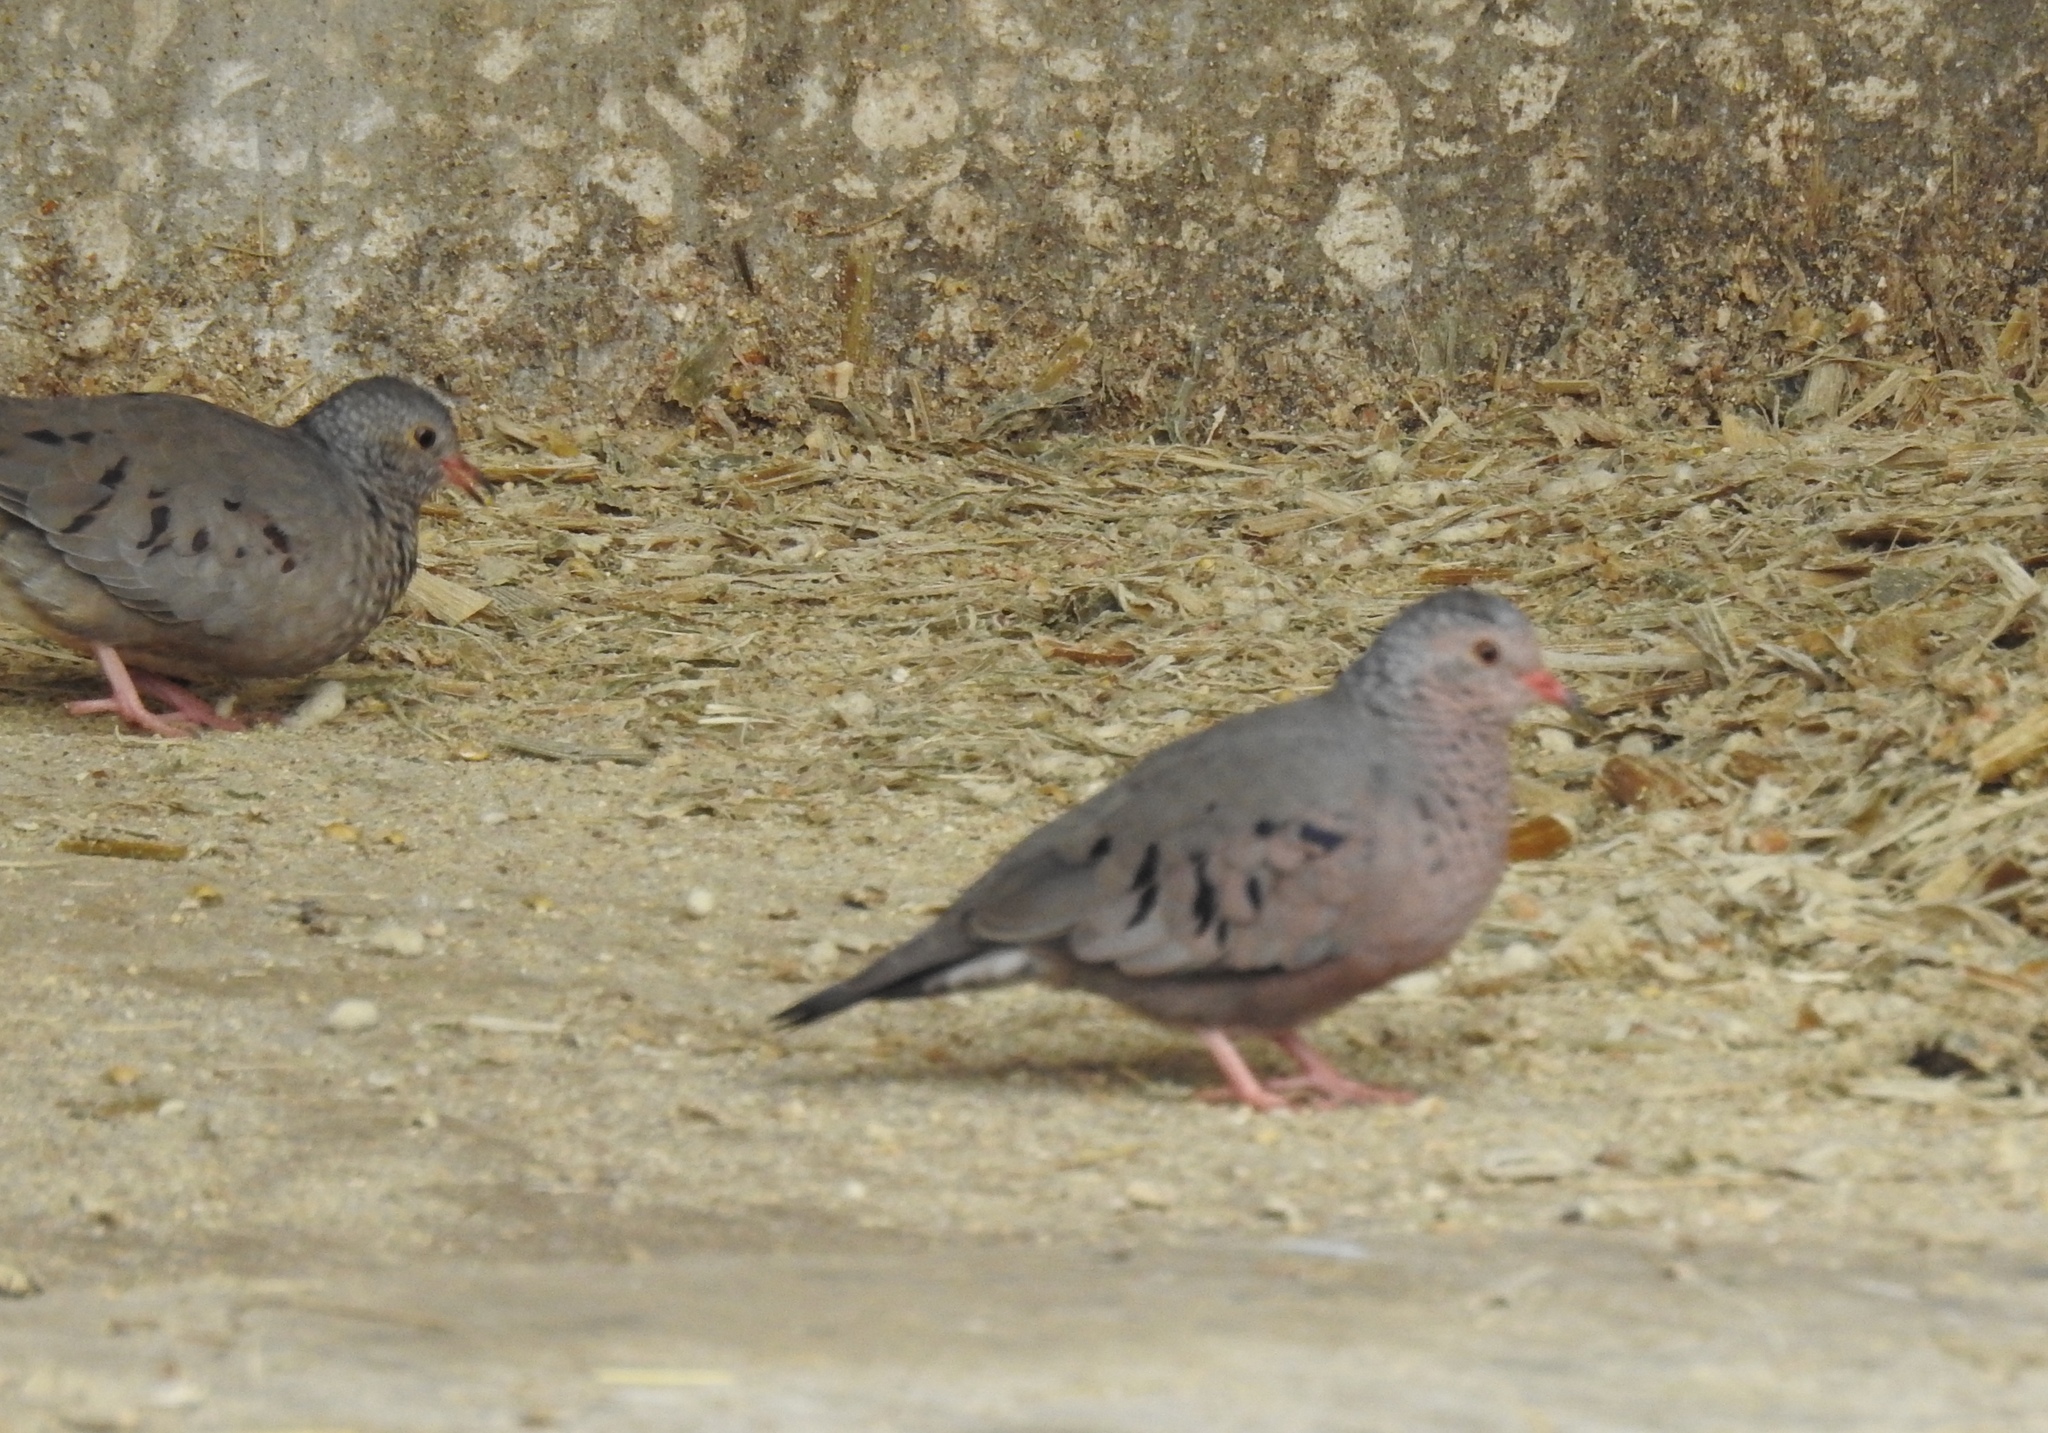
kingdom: Animalia
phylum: Chordata
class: Aves
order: Columbiformes
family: Columbidae
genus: Columbina
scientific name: Columbina passerina
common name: Common ground-dove
